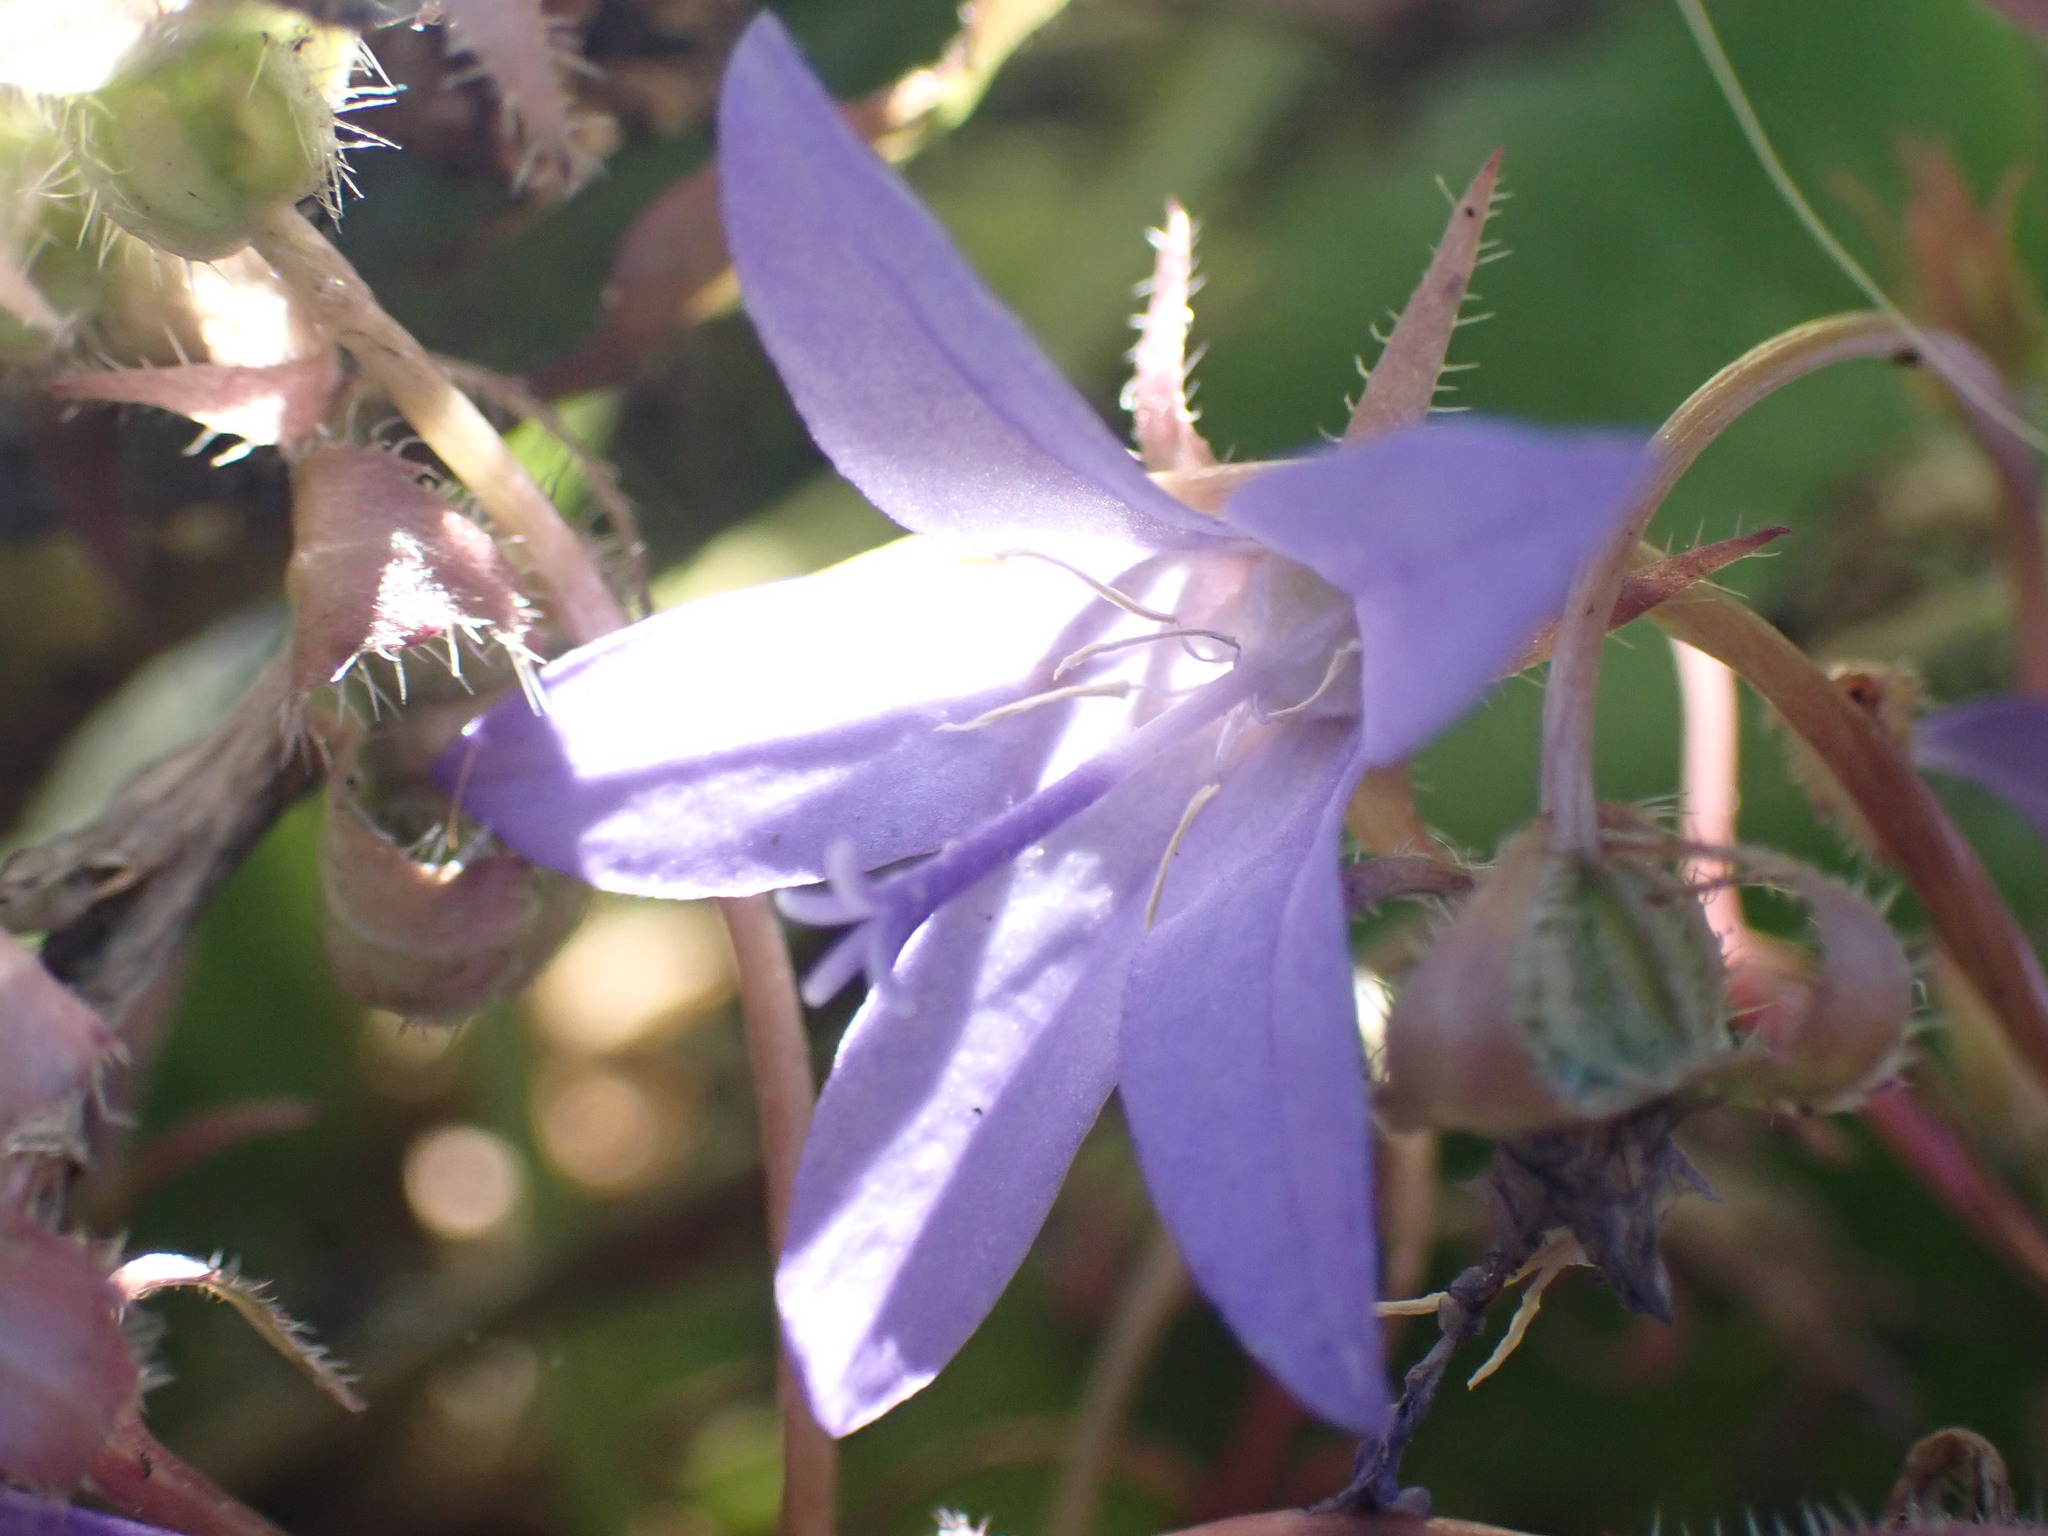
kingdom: Plantae
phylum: Tracheophyta
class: Magnoliopsida
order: Asterales
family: Campanulaceae
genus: Campanula
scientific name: Campanula poscharskyana
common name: Trailing bellflower
